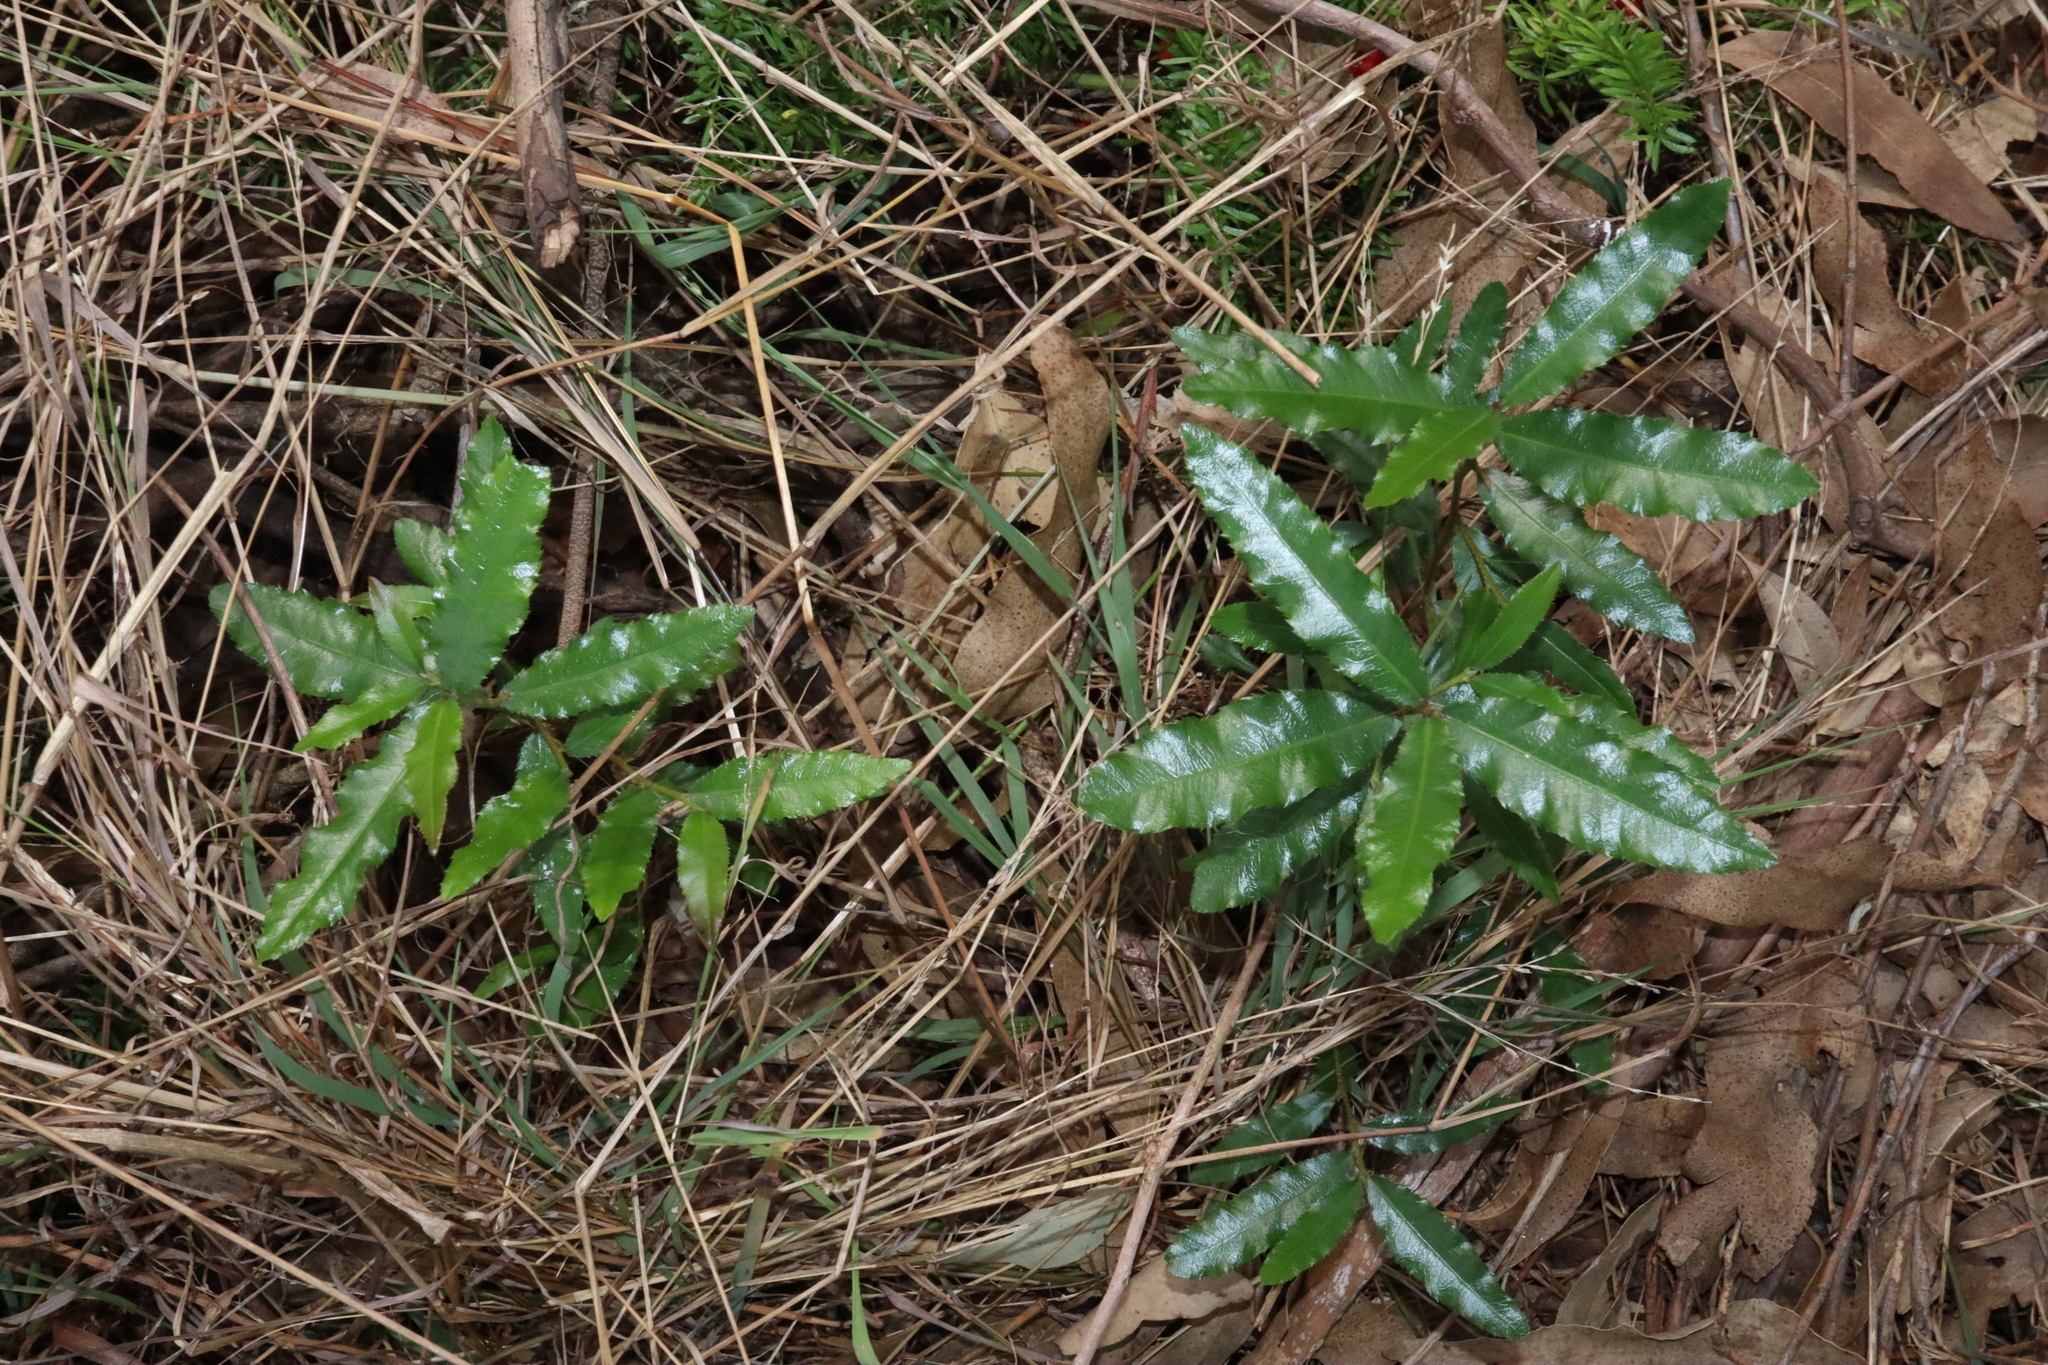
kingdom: Plantae
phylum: Tracheophyta
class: Magnoliopsida
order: Malpighiales
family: Ochnaceae
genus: Ochna
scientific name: Ochna serrulata
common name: Mickey mouse plant
